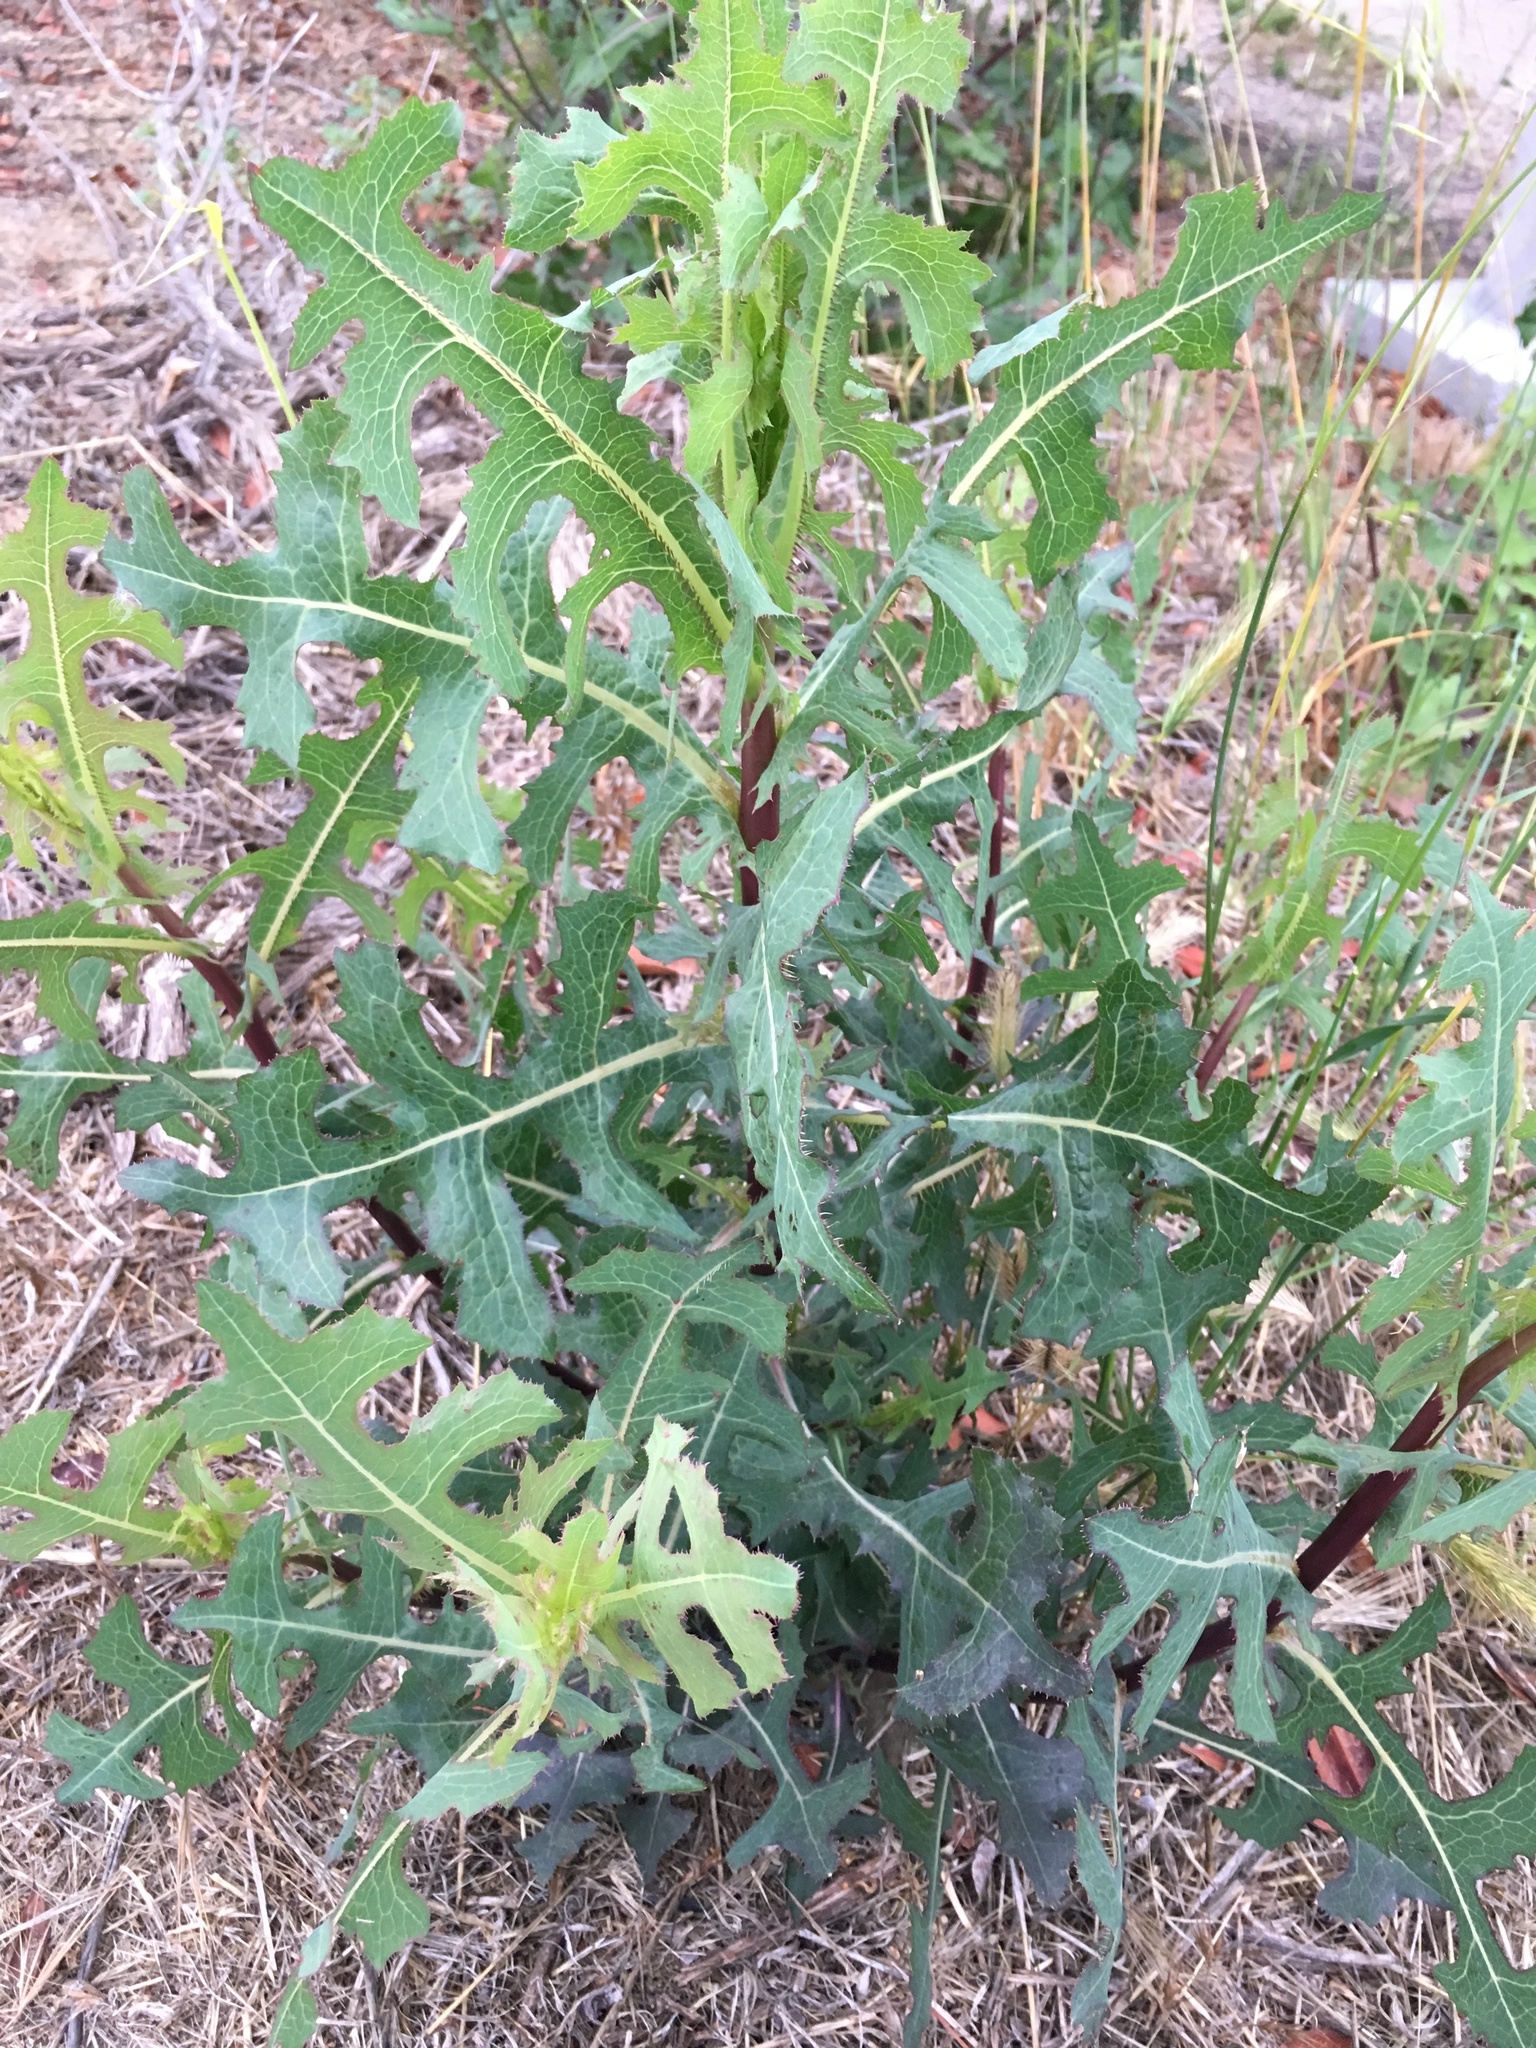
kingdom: Plantae
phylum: Tracheophyta
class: Magnoliopsida
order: Asterales
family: Asteraceae
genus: Lactuca
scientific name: Lactuca serriola
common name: Prickly lettuce
